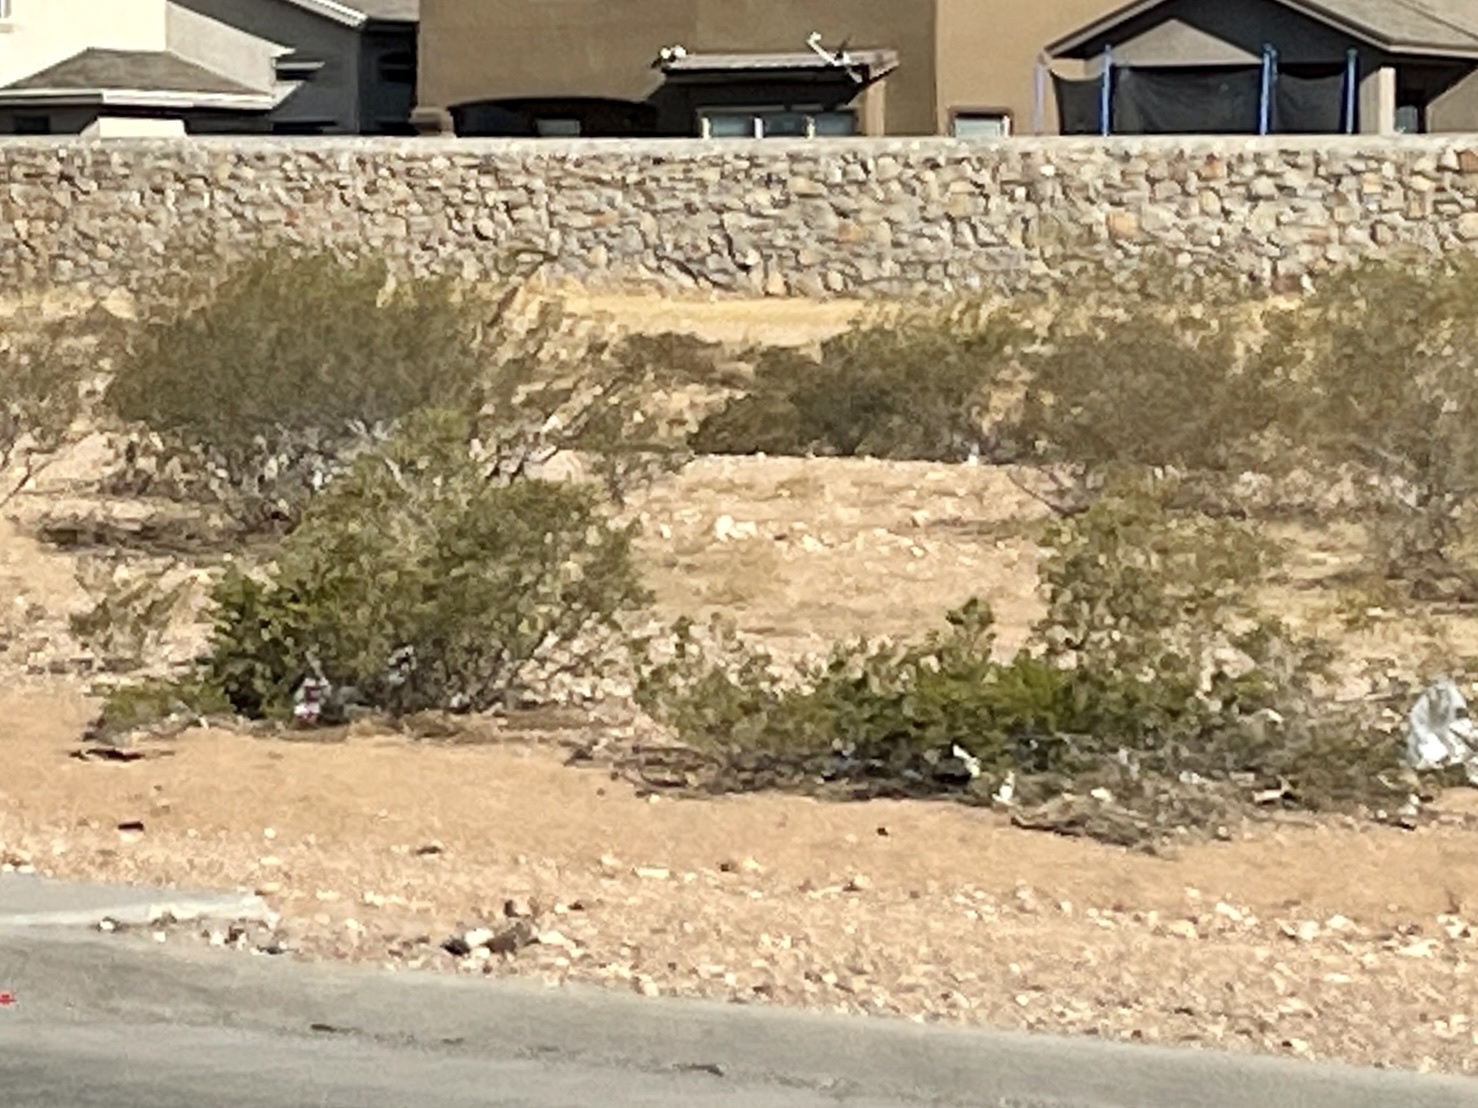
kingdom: Plantae
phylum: Tracheophyta
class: Magnoliopsida
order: Zygophyllales
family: Zygophyllaceae
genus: Larrea
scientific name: Larrea tridentata
